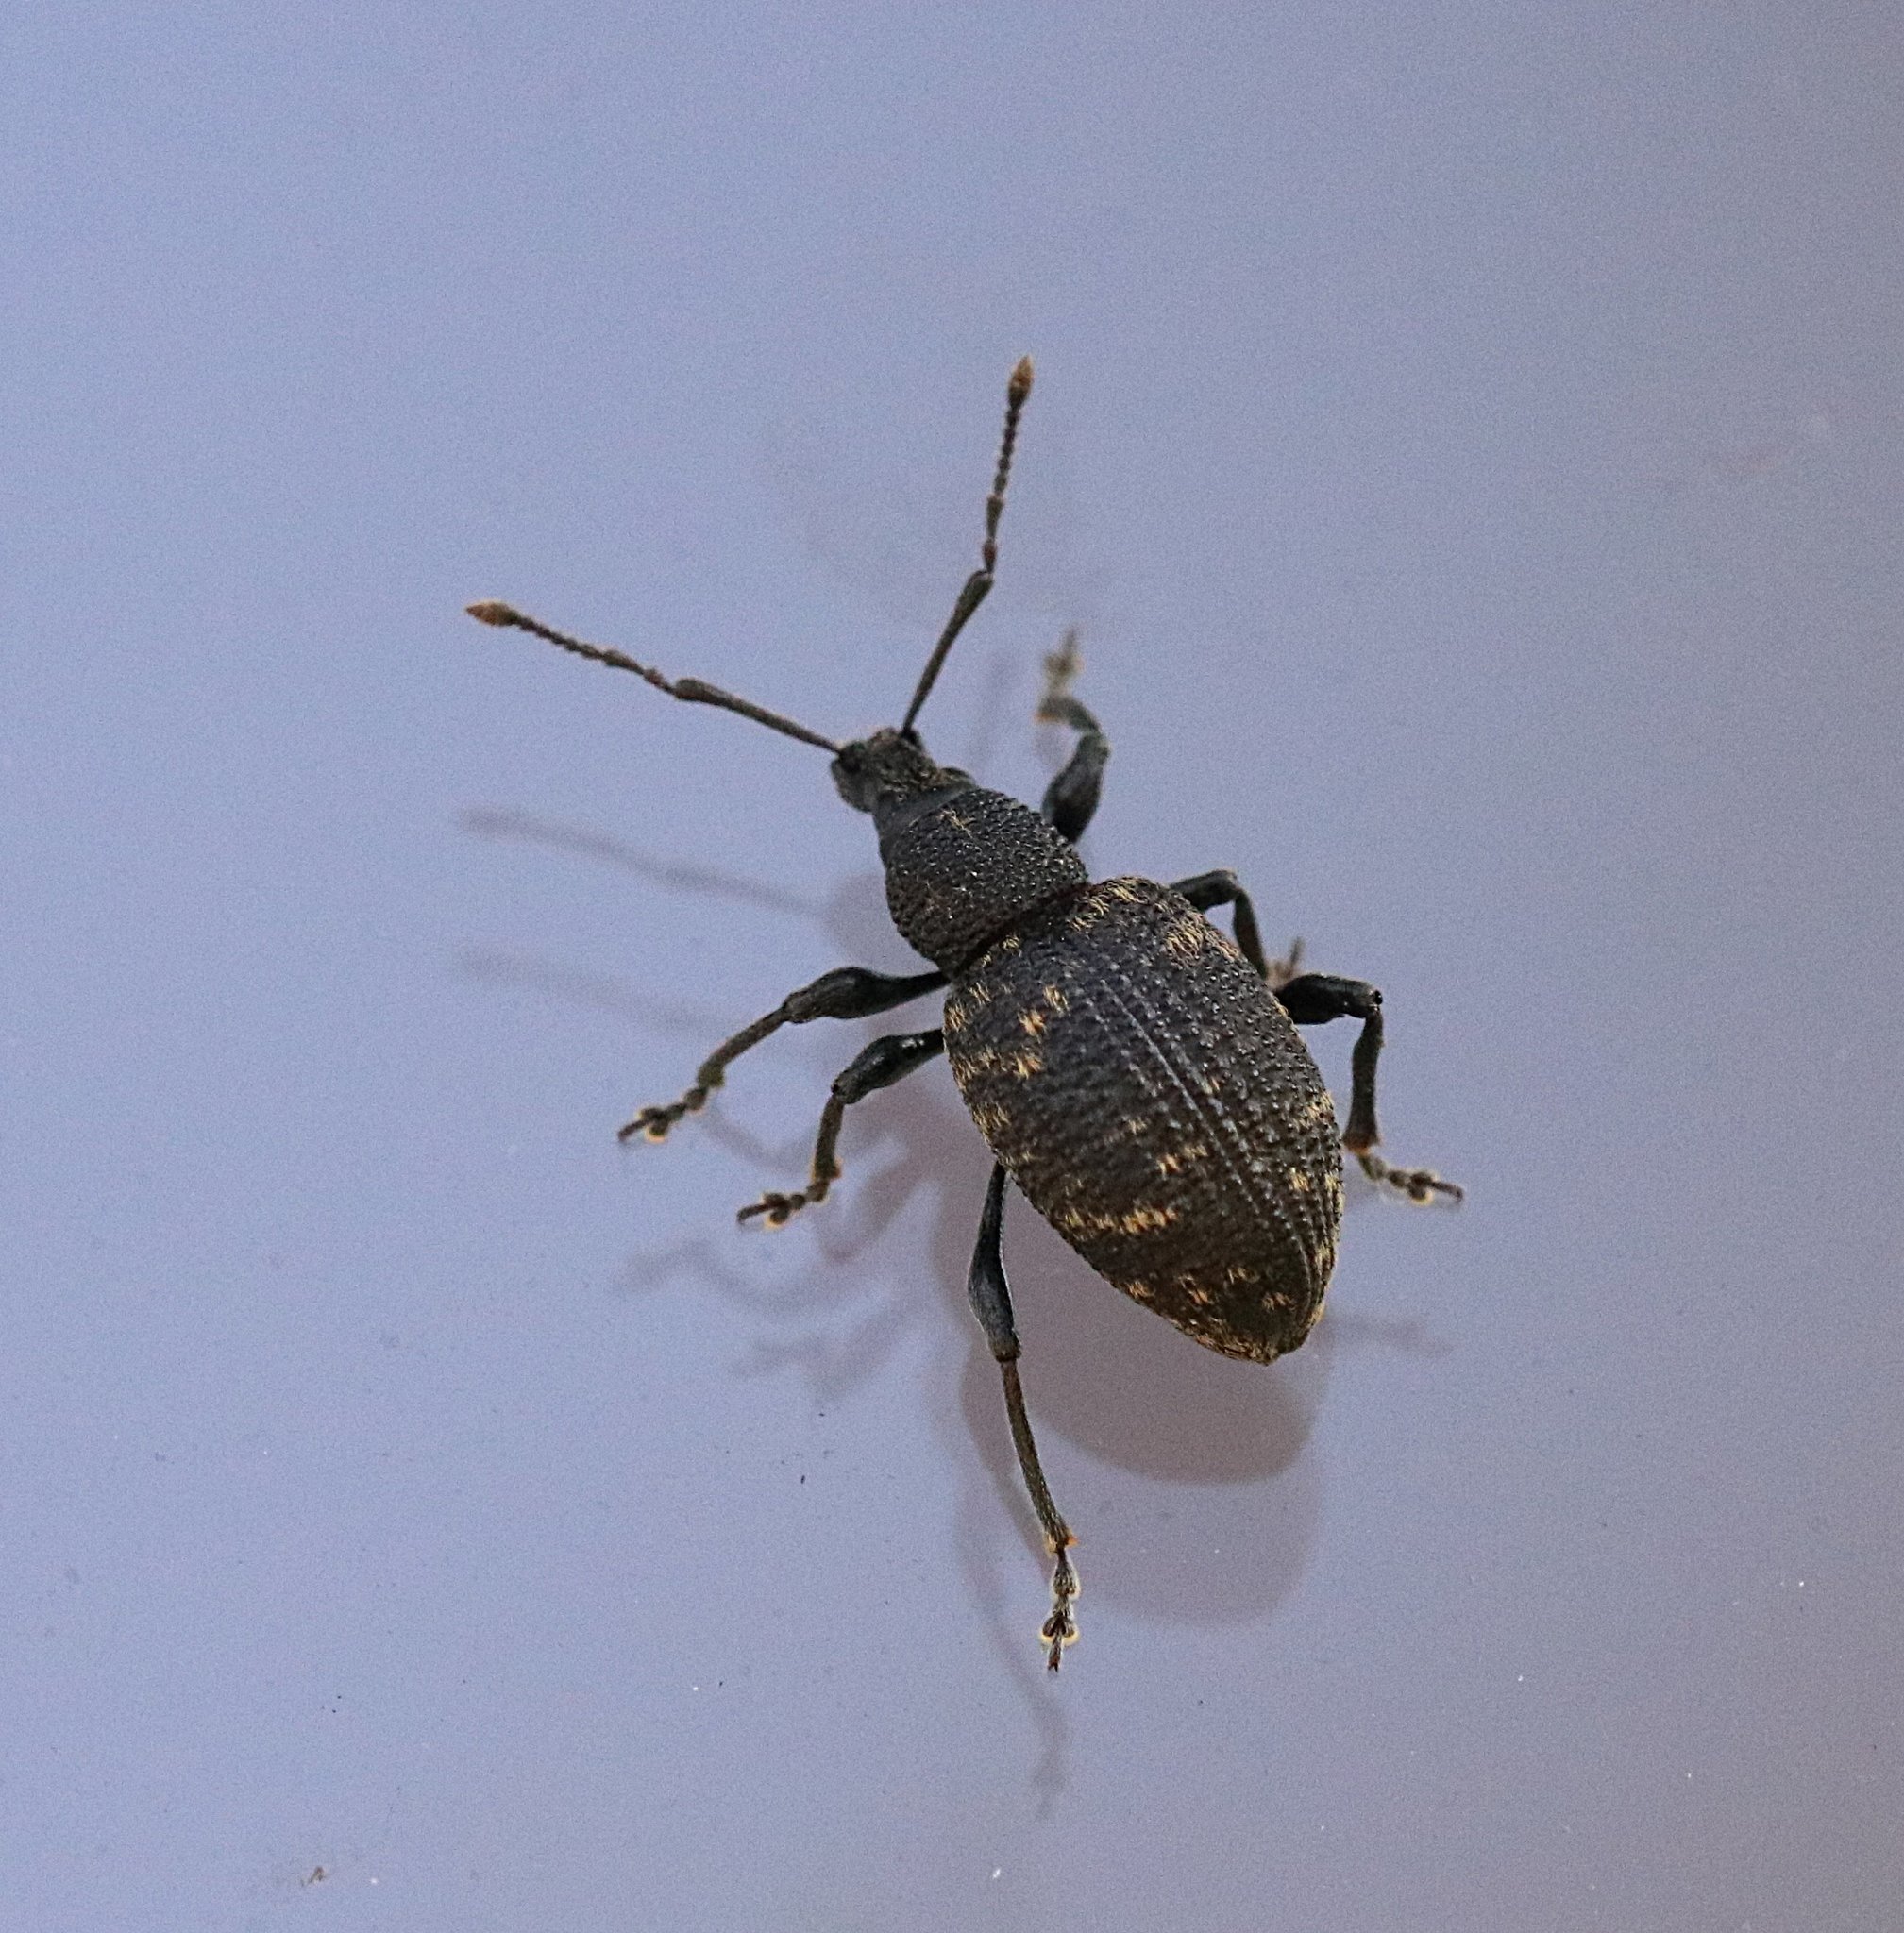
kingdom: Animalia
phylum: Arthropoda
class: Insecta
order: Coleoptera
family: Curculionidae
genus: Otiorhynchus
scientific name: Otiorhynchus sulcatus
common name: Black vine weevil
